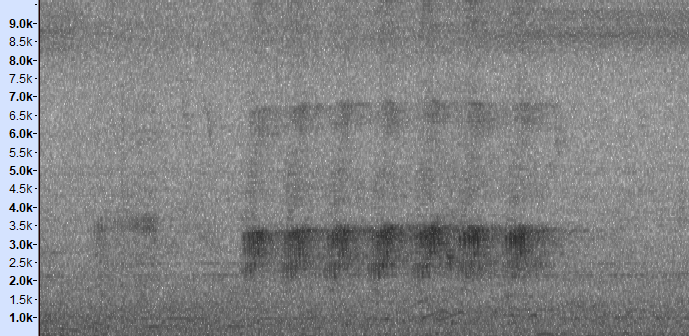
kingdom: Animalia
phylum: Chordata
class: Aves
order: Passeriformes
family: Sturnidae
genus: Gracupica
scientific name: Gracupica nigricollis
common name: Black-collared starling
